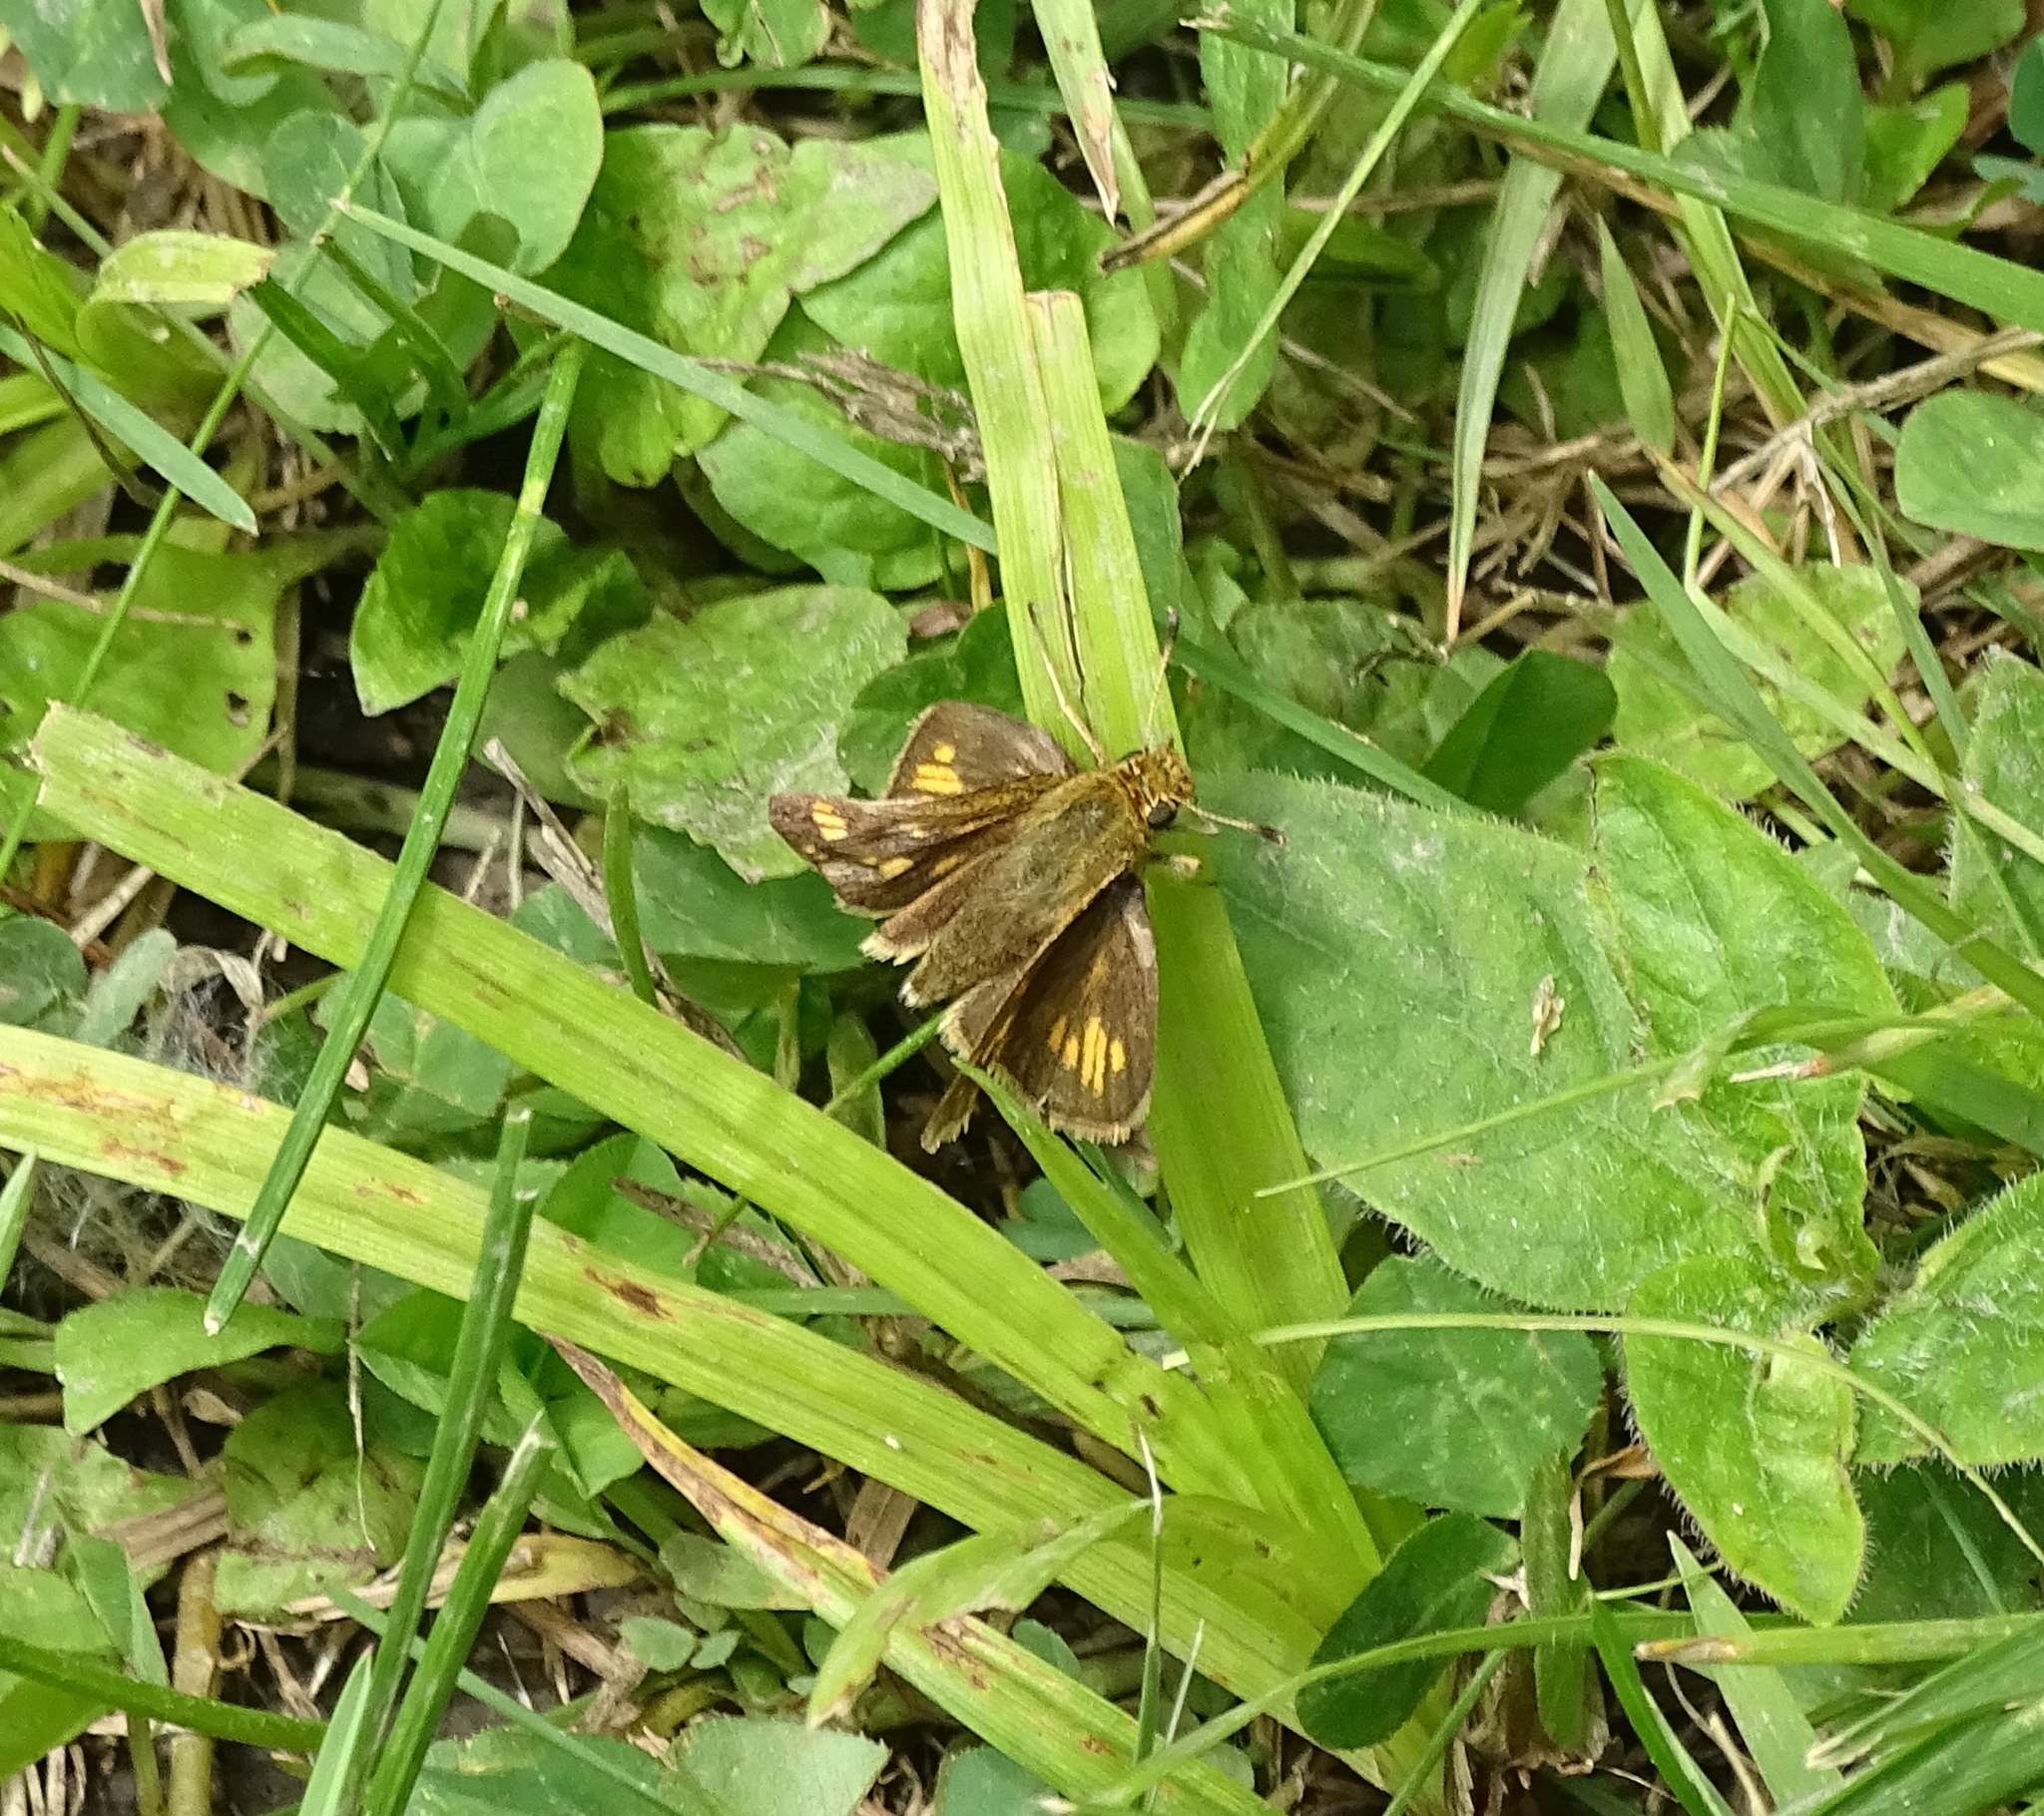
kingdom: Animalia
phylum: Arthropoda
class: Insecta
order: Lepidoptera
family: Hesperiidae
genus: Polites
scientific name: Polites coras
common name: Peck's skipper
